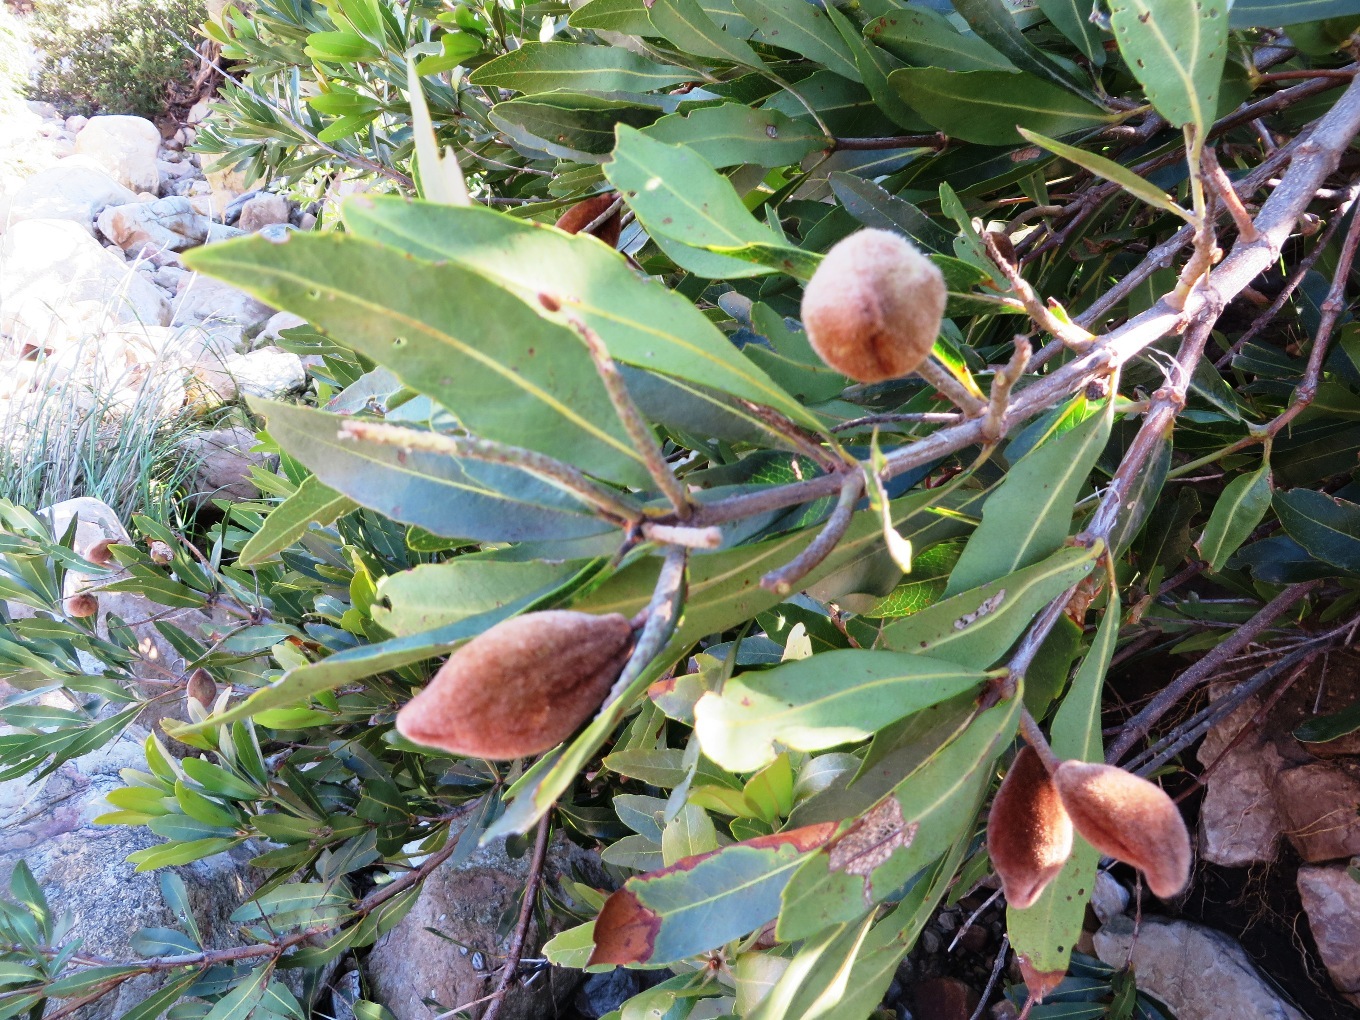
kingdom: Plantae
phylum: Tracheophyta
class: Magnoliopsida
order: Proteales
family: Proteaceae
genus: Brabejum
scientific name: Brabejum stellatifolium
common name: Wild almond
